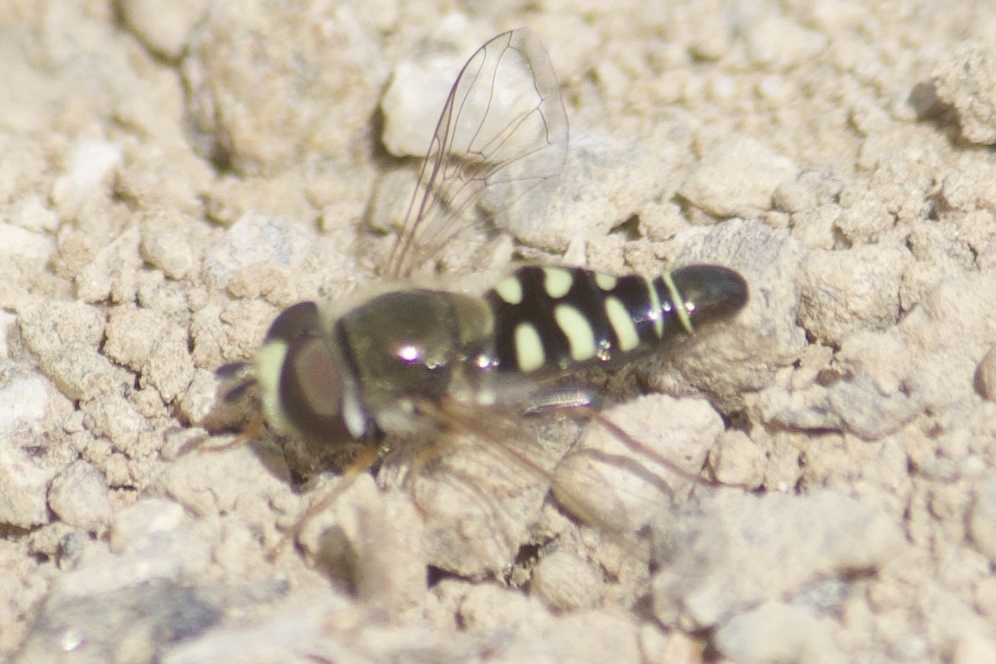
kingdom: Animalia
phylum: Arthropoda
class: Insecta
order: Diptera
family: Syrphidae
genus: Eupeodes
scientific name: Eupeodes volucris
